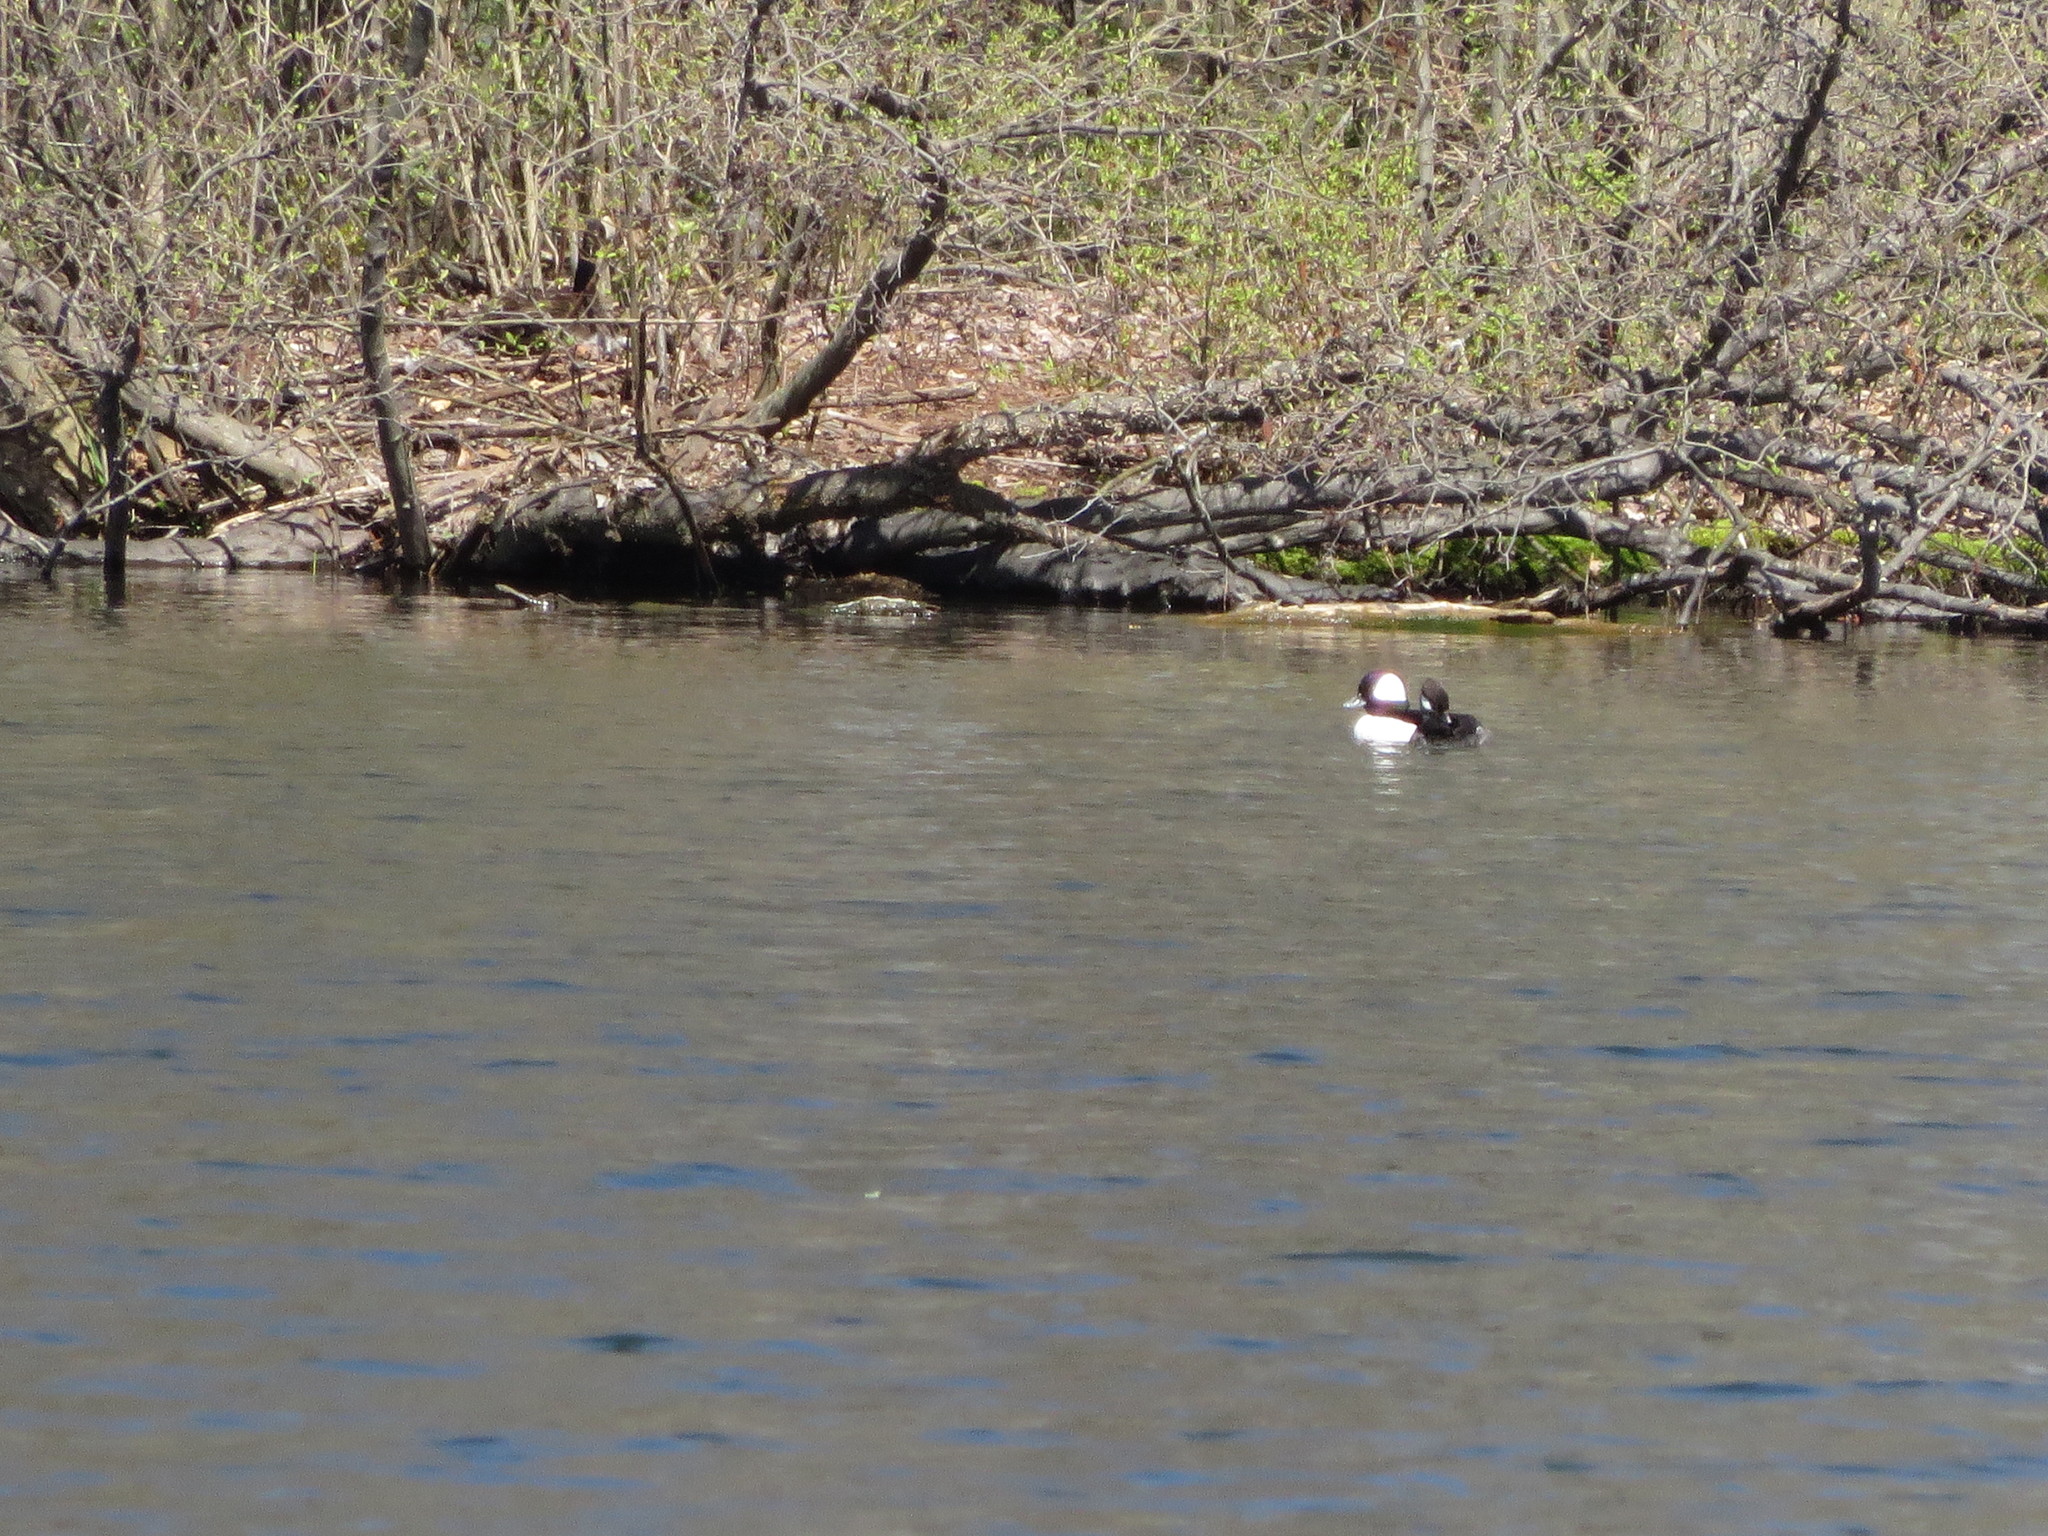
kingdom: Animalia
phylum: Chordata
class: Aves
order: Anseriformes
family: Anatidae
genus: Bucephala
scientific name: Bucephala albeola
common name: Bufflehead
